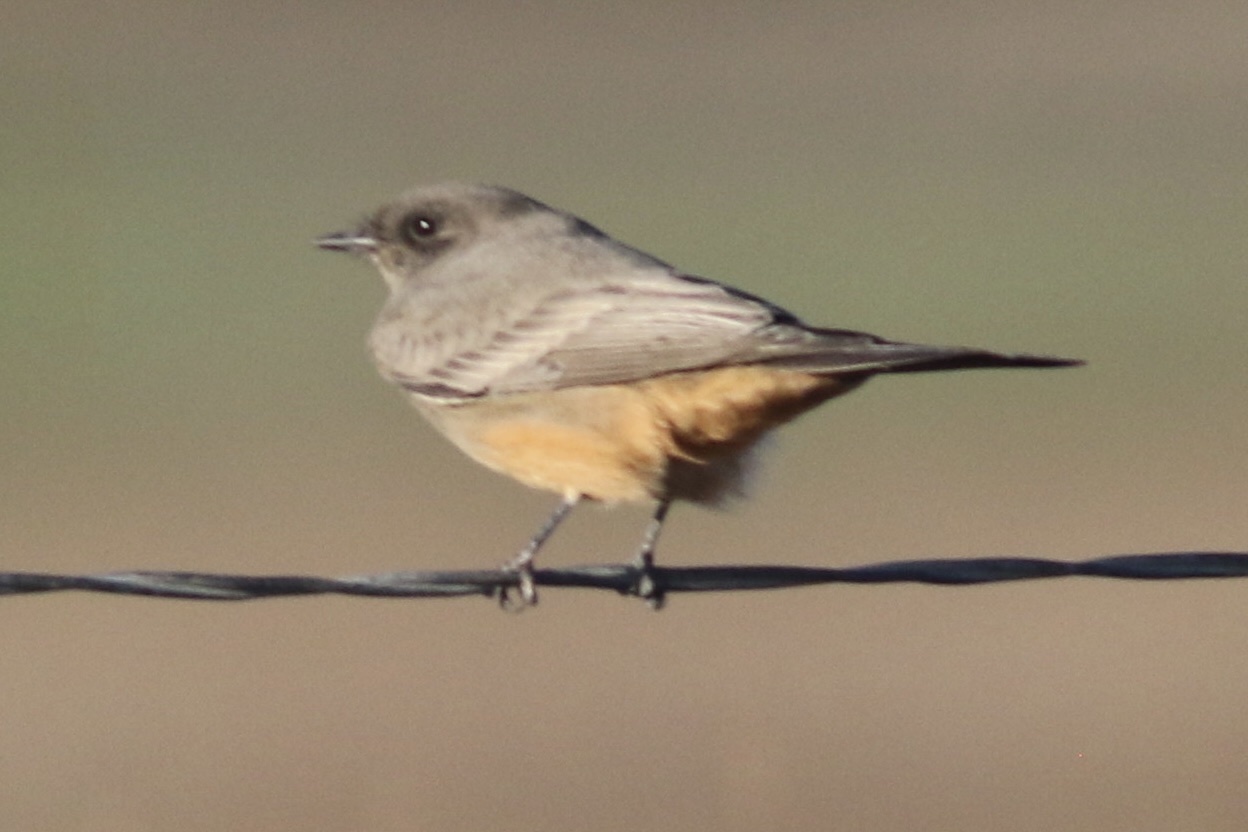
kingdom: Animalia
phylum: Chordata
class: Aves
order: Passeriformes
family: Tyrannidae
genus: Sayornis
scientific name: Sayornis saya
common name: Say's phoebe
